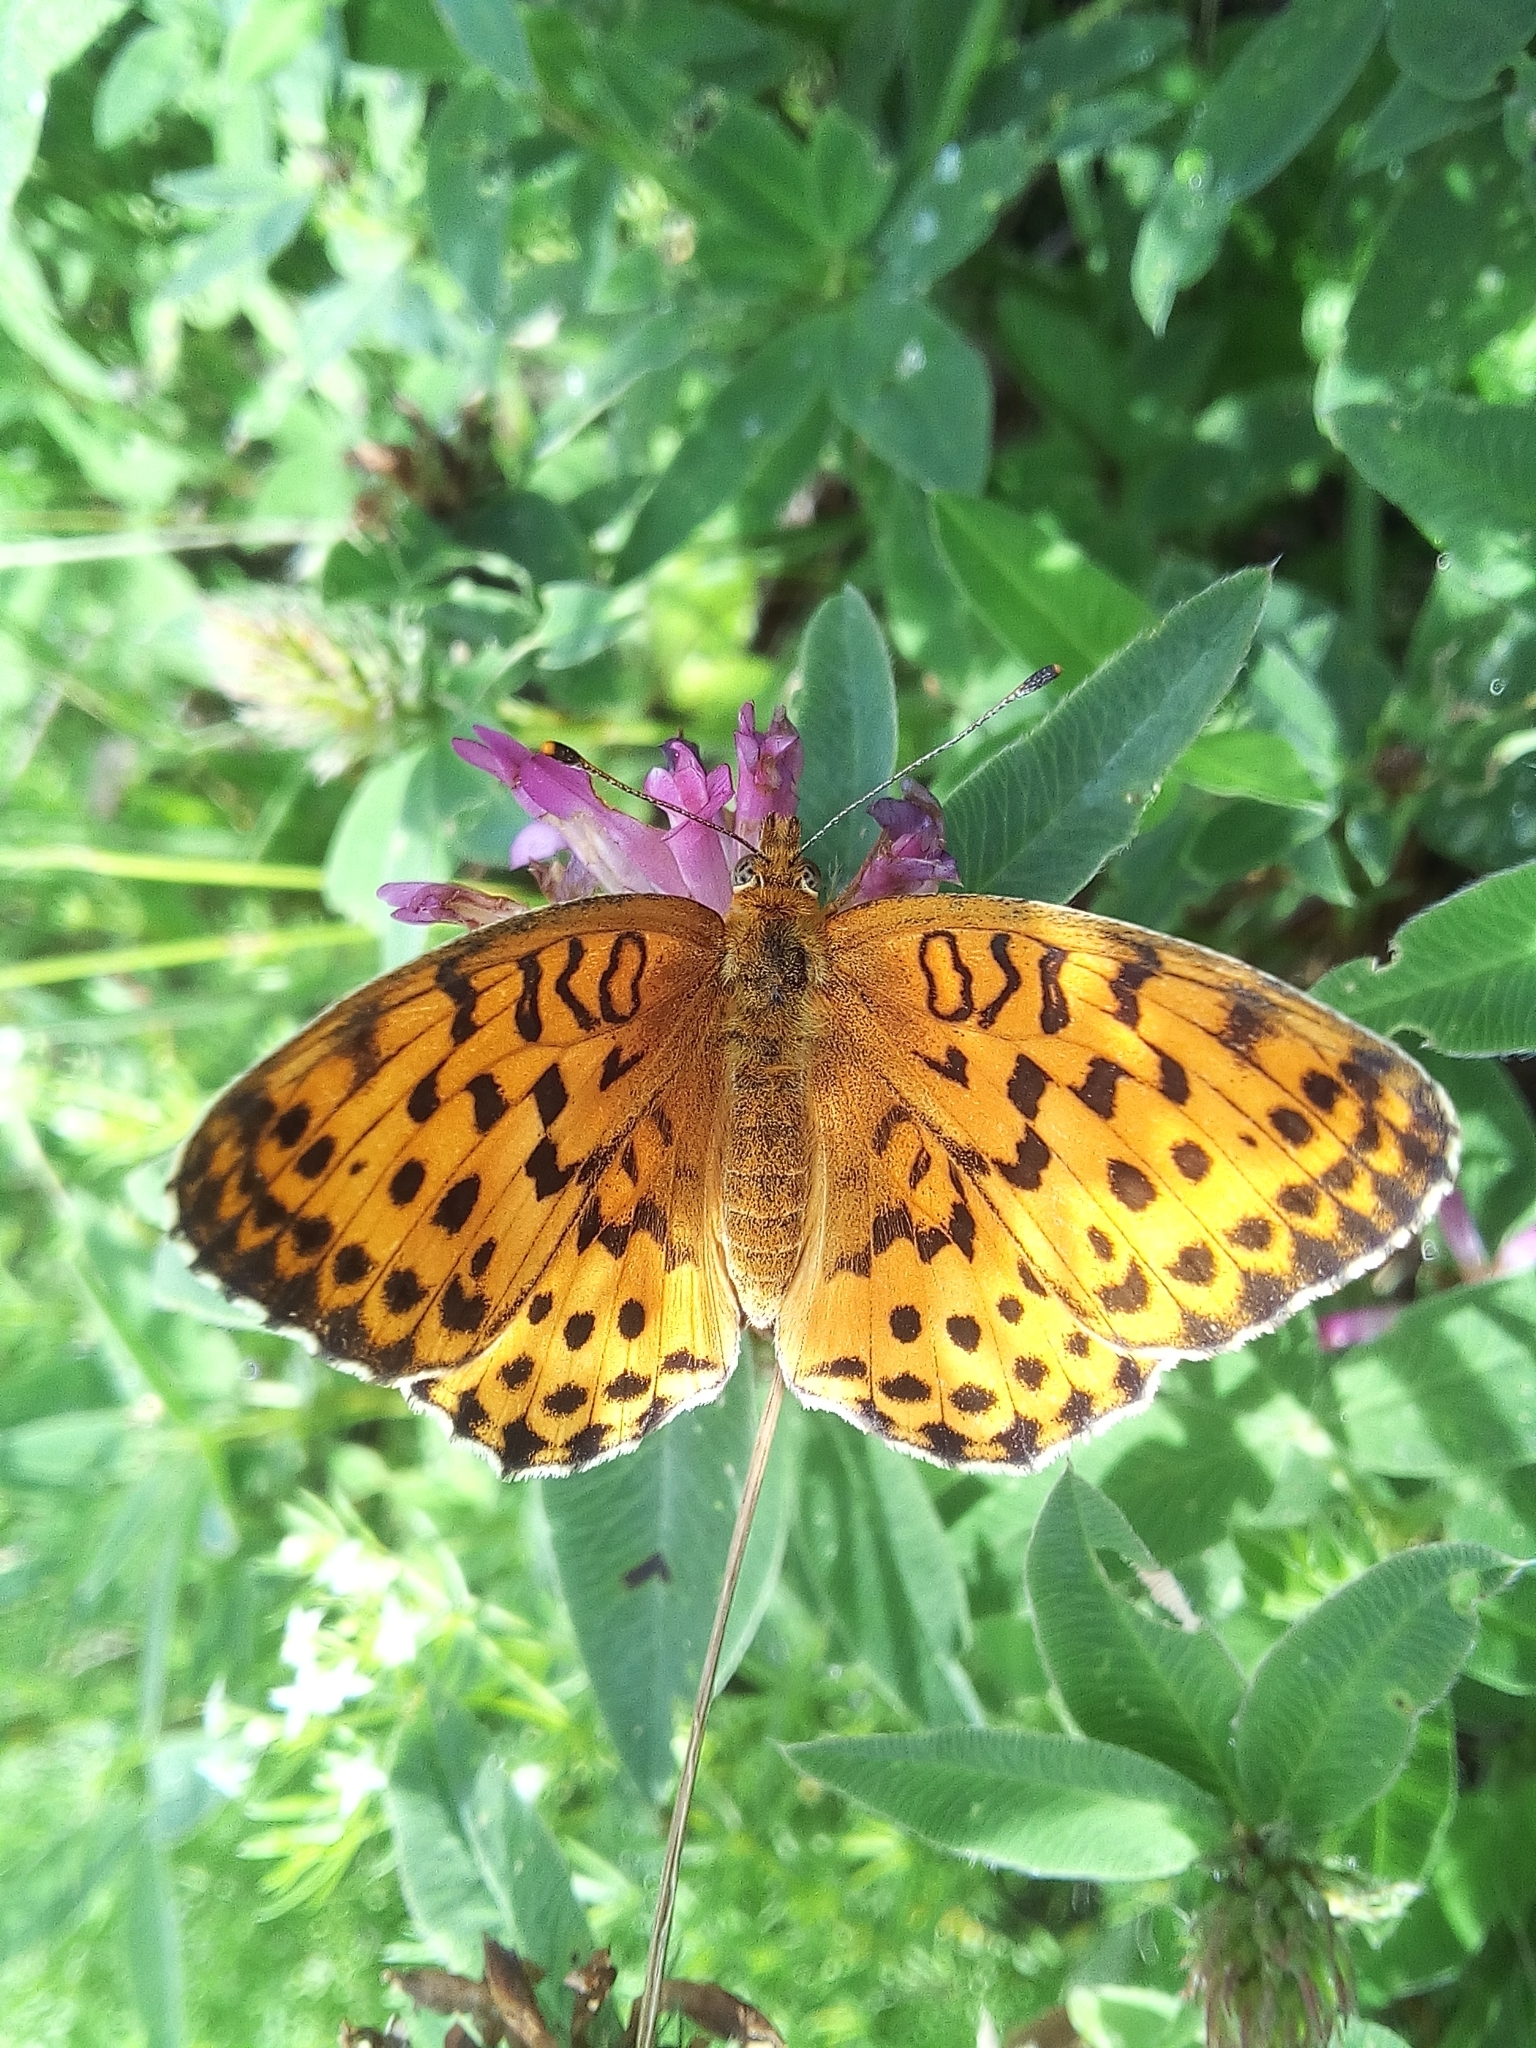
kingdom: Animalia
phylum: Arthropoda
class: Insecta
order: Lepidoptera
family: Nymphalidae
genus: Brenthis
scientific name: Brenthis daphne
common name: Marbled fritillary
